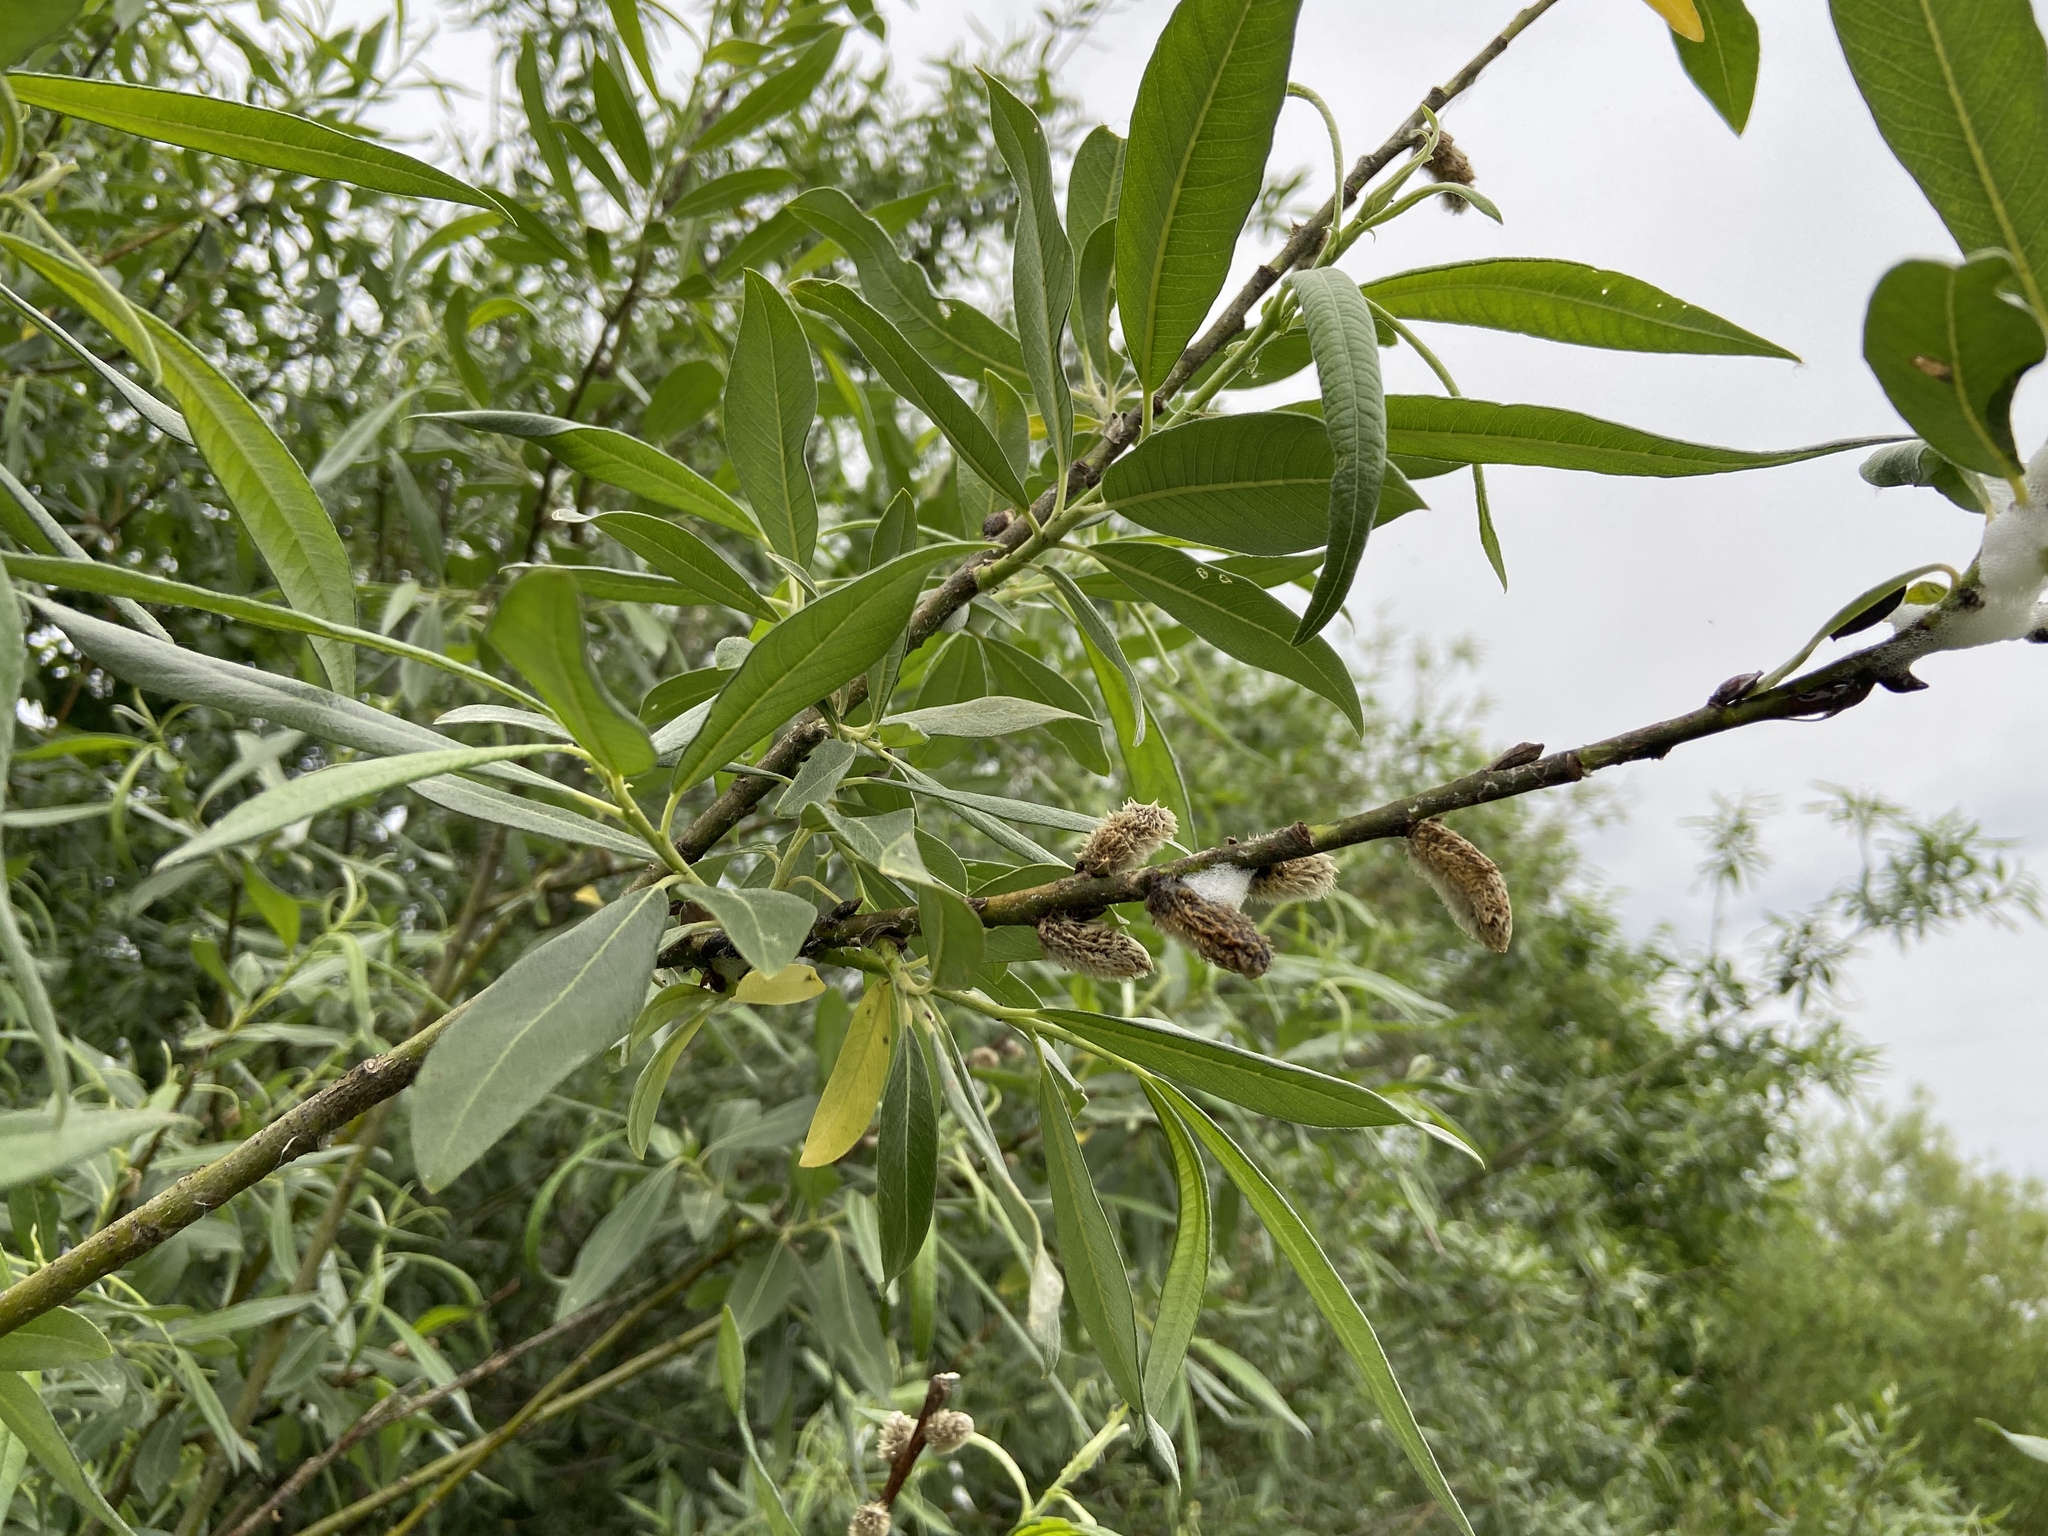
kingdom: Plantae
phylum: Tracheophyta
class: Magnoliopsida
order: Malpighiales
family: Salicaceae
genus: Salix
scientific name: Salix gmelinii
